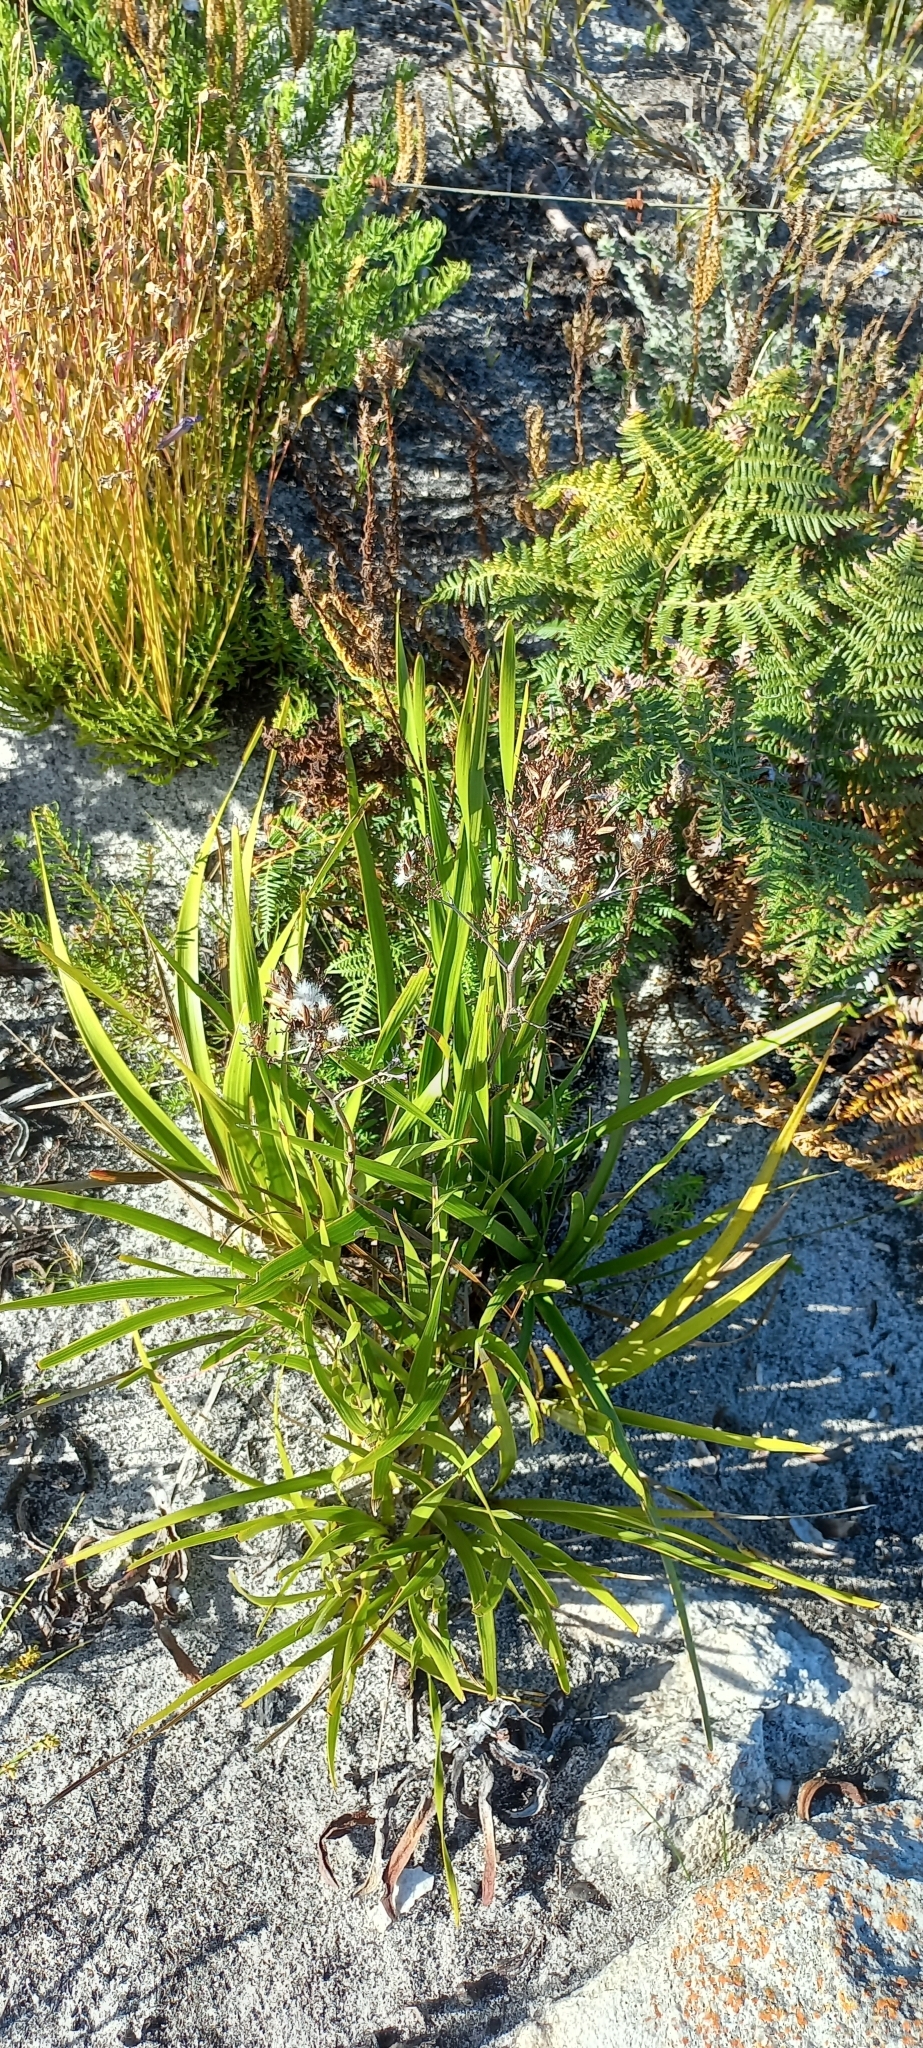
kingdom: Plantae
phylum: Tracheophyta
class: Liliopsida
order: Asparagales
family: Amaryllidaceae
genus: Agapanthus
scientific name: Agapanthus africanus
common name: Lily-of-the-nile
